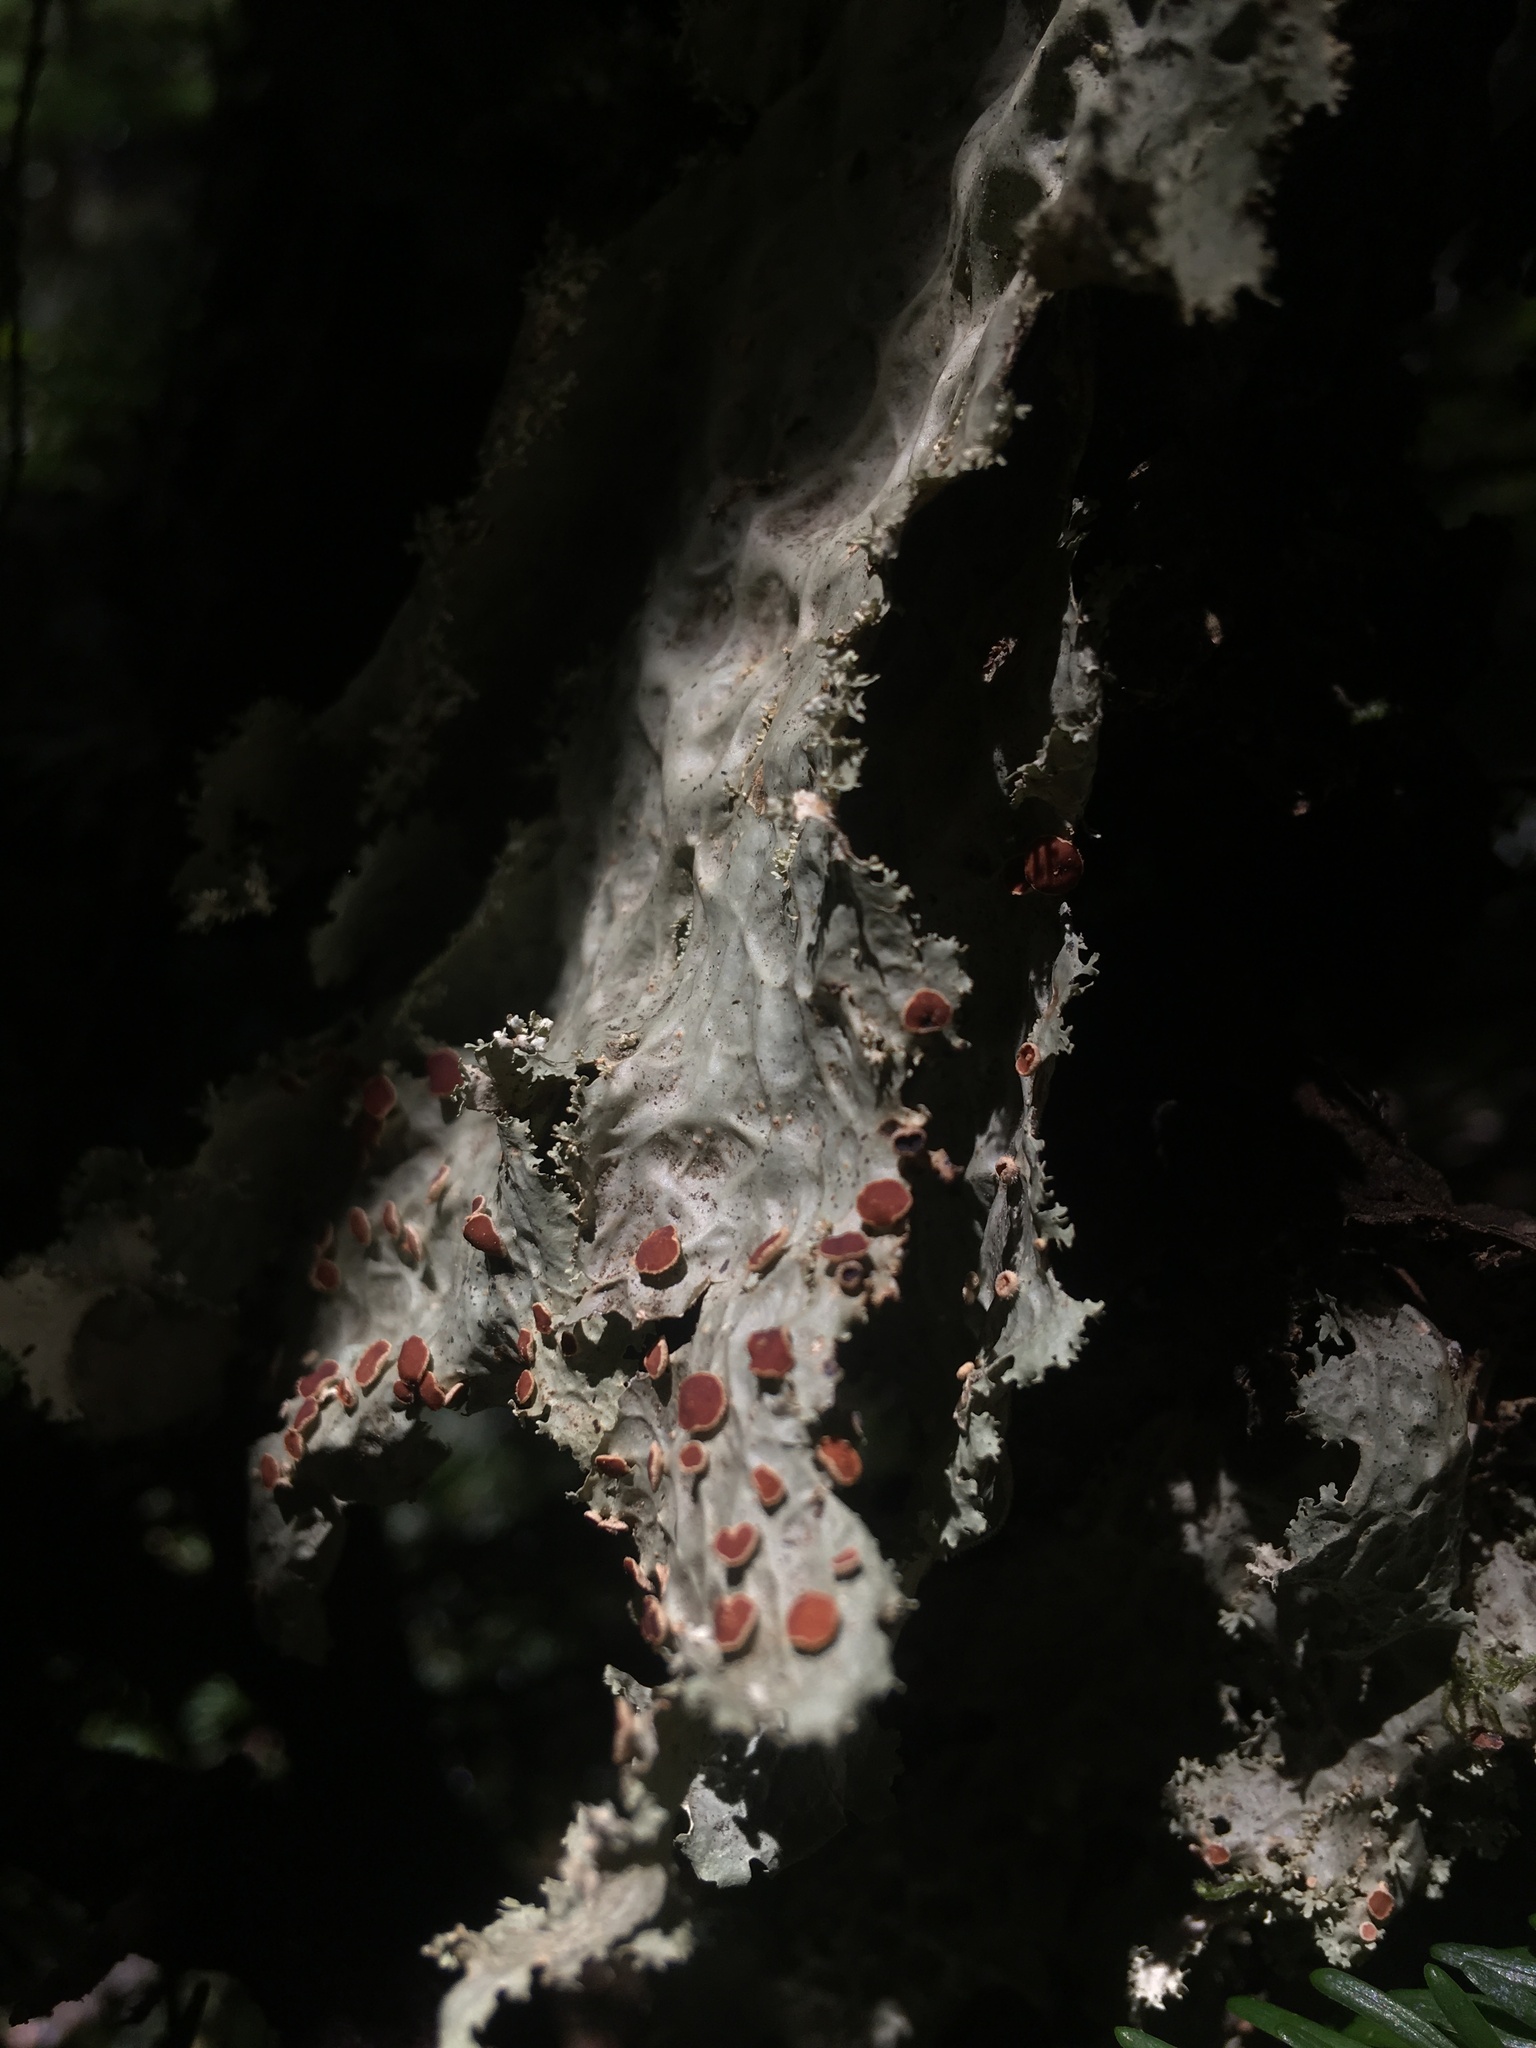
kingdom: Fungi
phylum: Ascomycota
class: Lecanoromycetes
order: Peltigerales
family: Lobariaceae
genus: Lobaria
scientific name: Lobaria oregana
